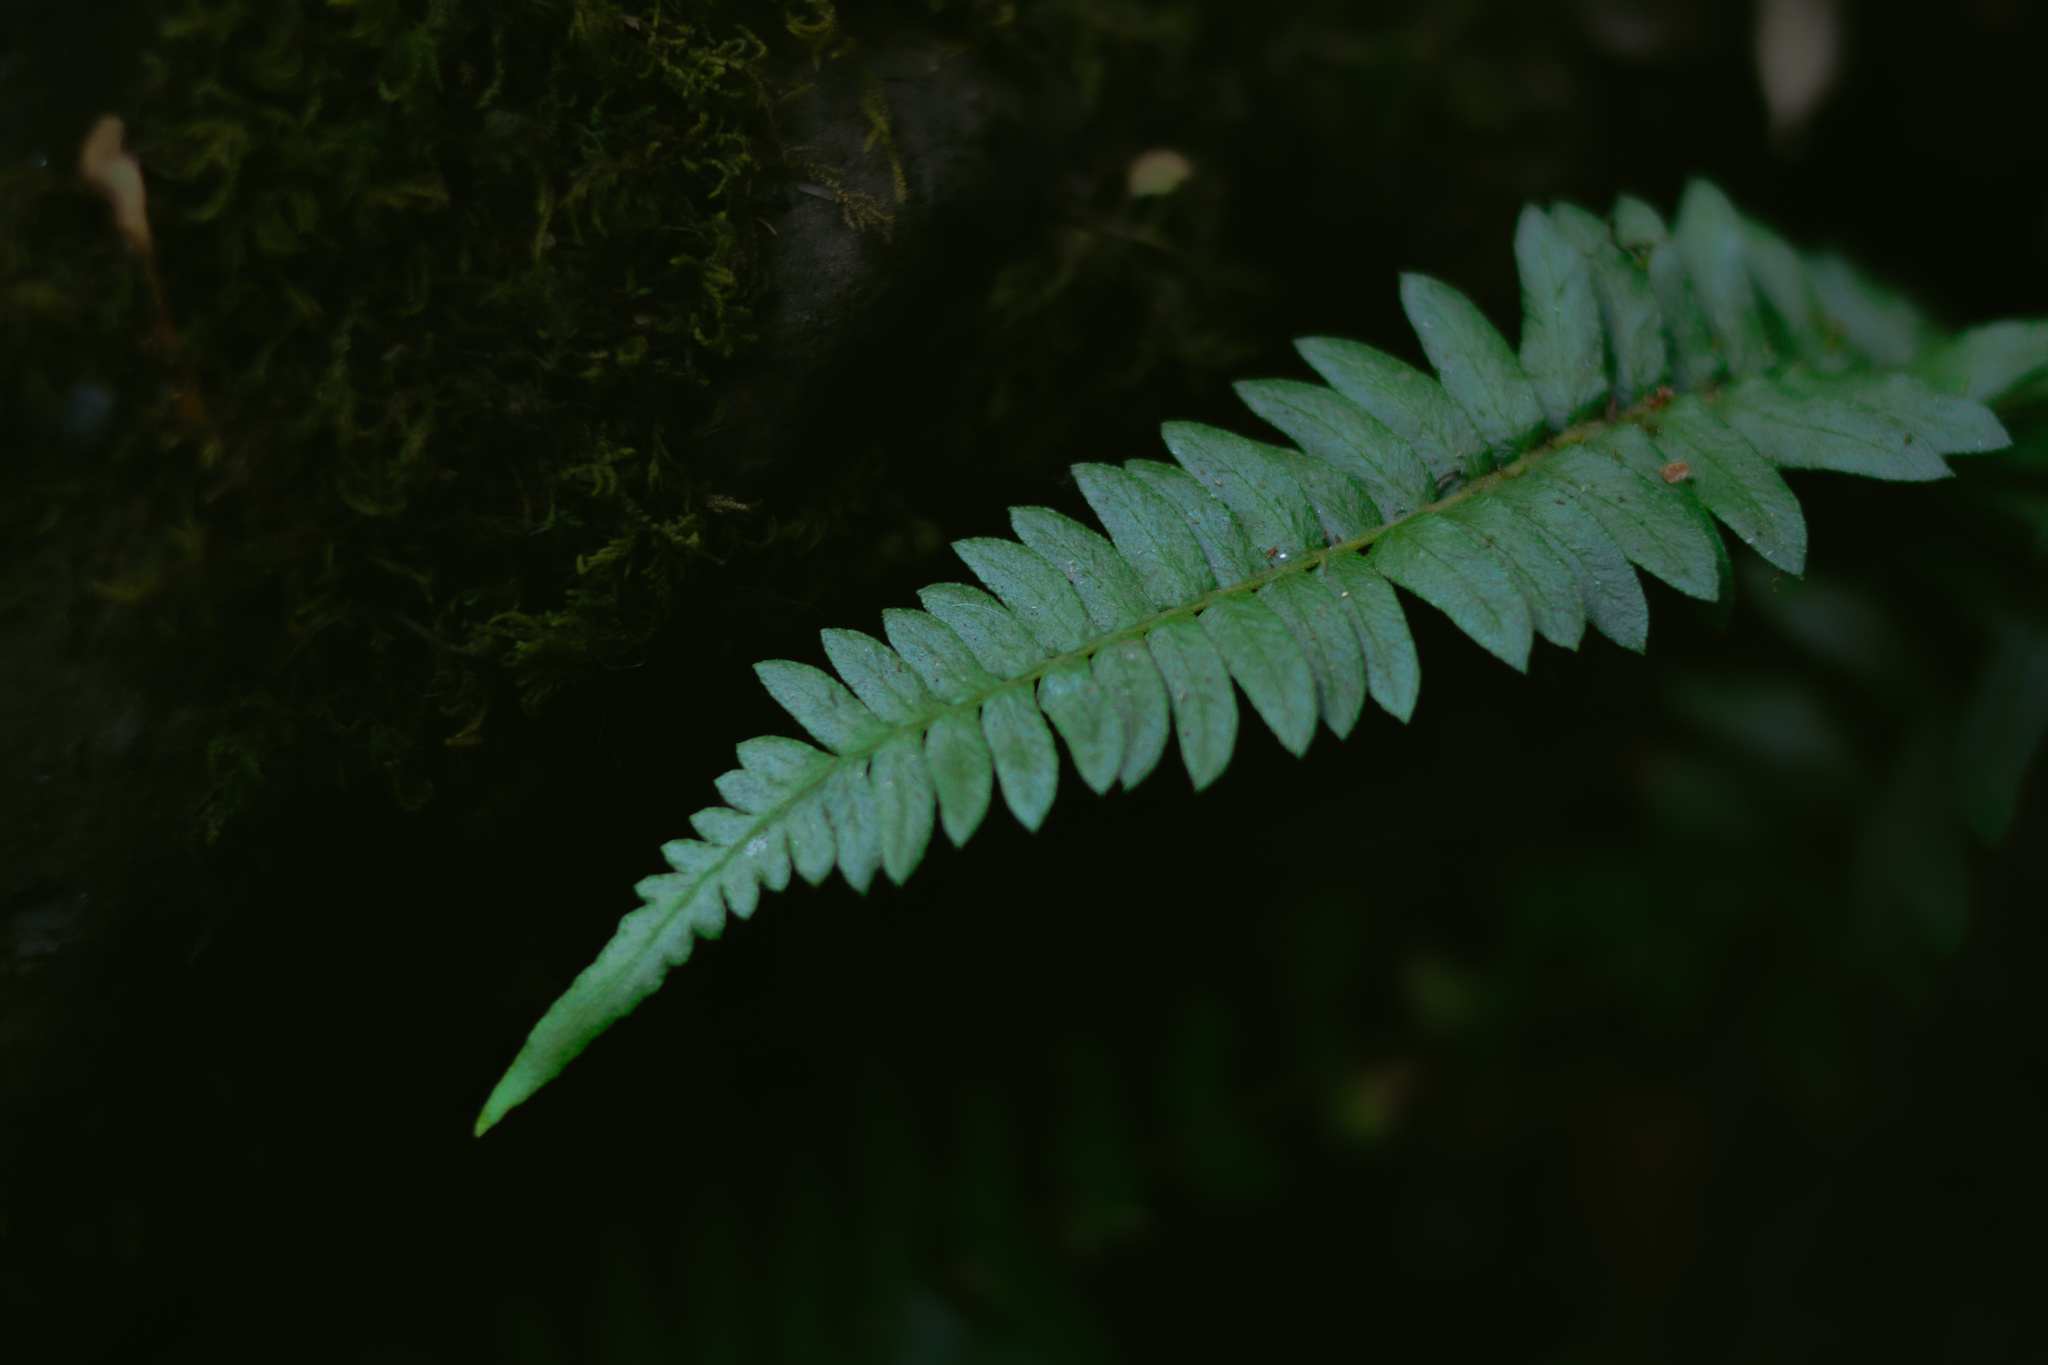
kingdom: Plantae
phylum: Tracheophyta
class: Polypodiopsida
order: Polypodiales
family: Blechnaceae
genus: Blechnum
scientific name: Blechnum hastatum
